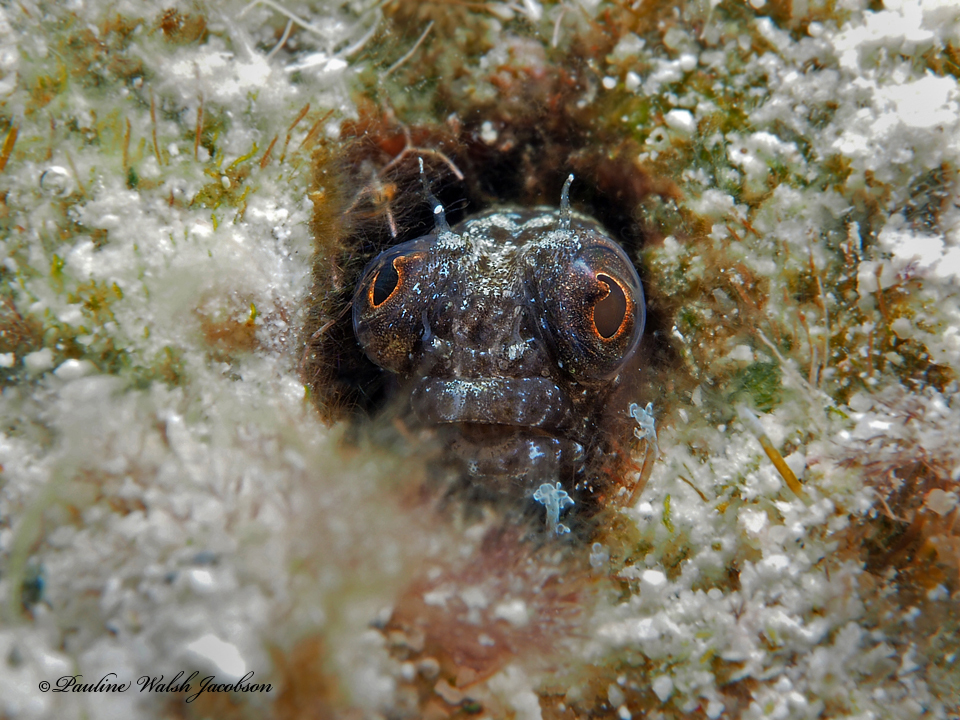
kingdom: Animalia
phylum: Chordata
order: Perciformes
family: Chaenopsidae
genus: Emblemaria
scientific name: Emblemaria pandionis
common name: Sailfin blenny
